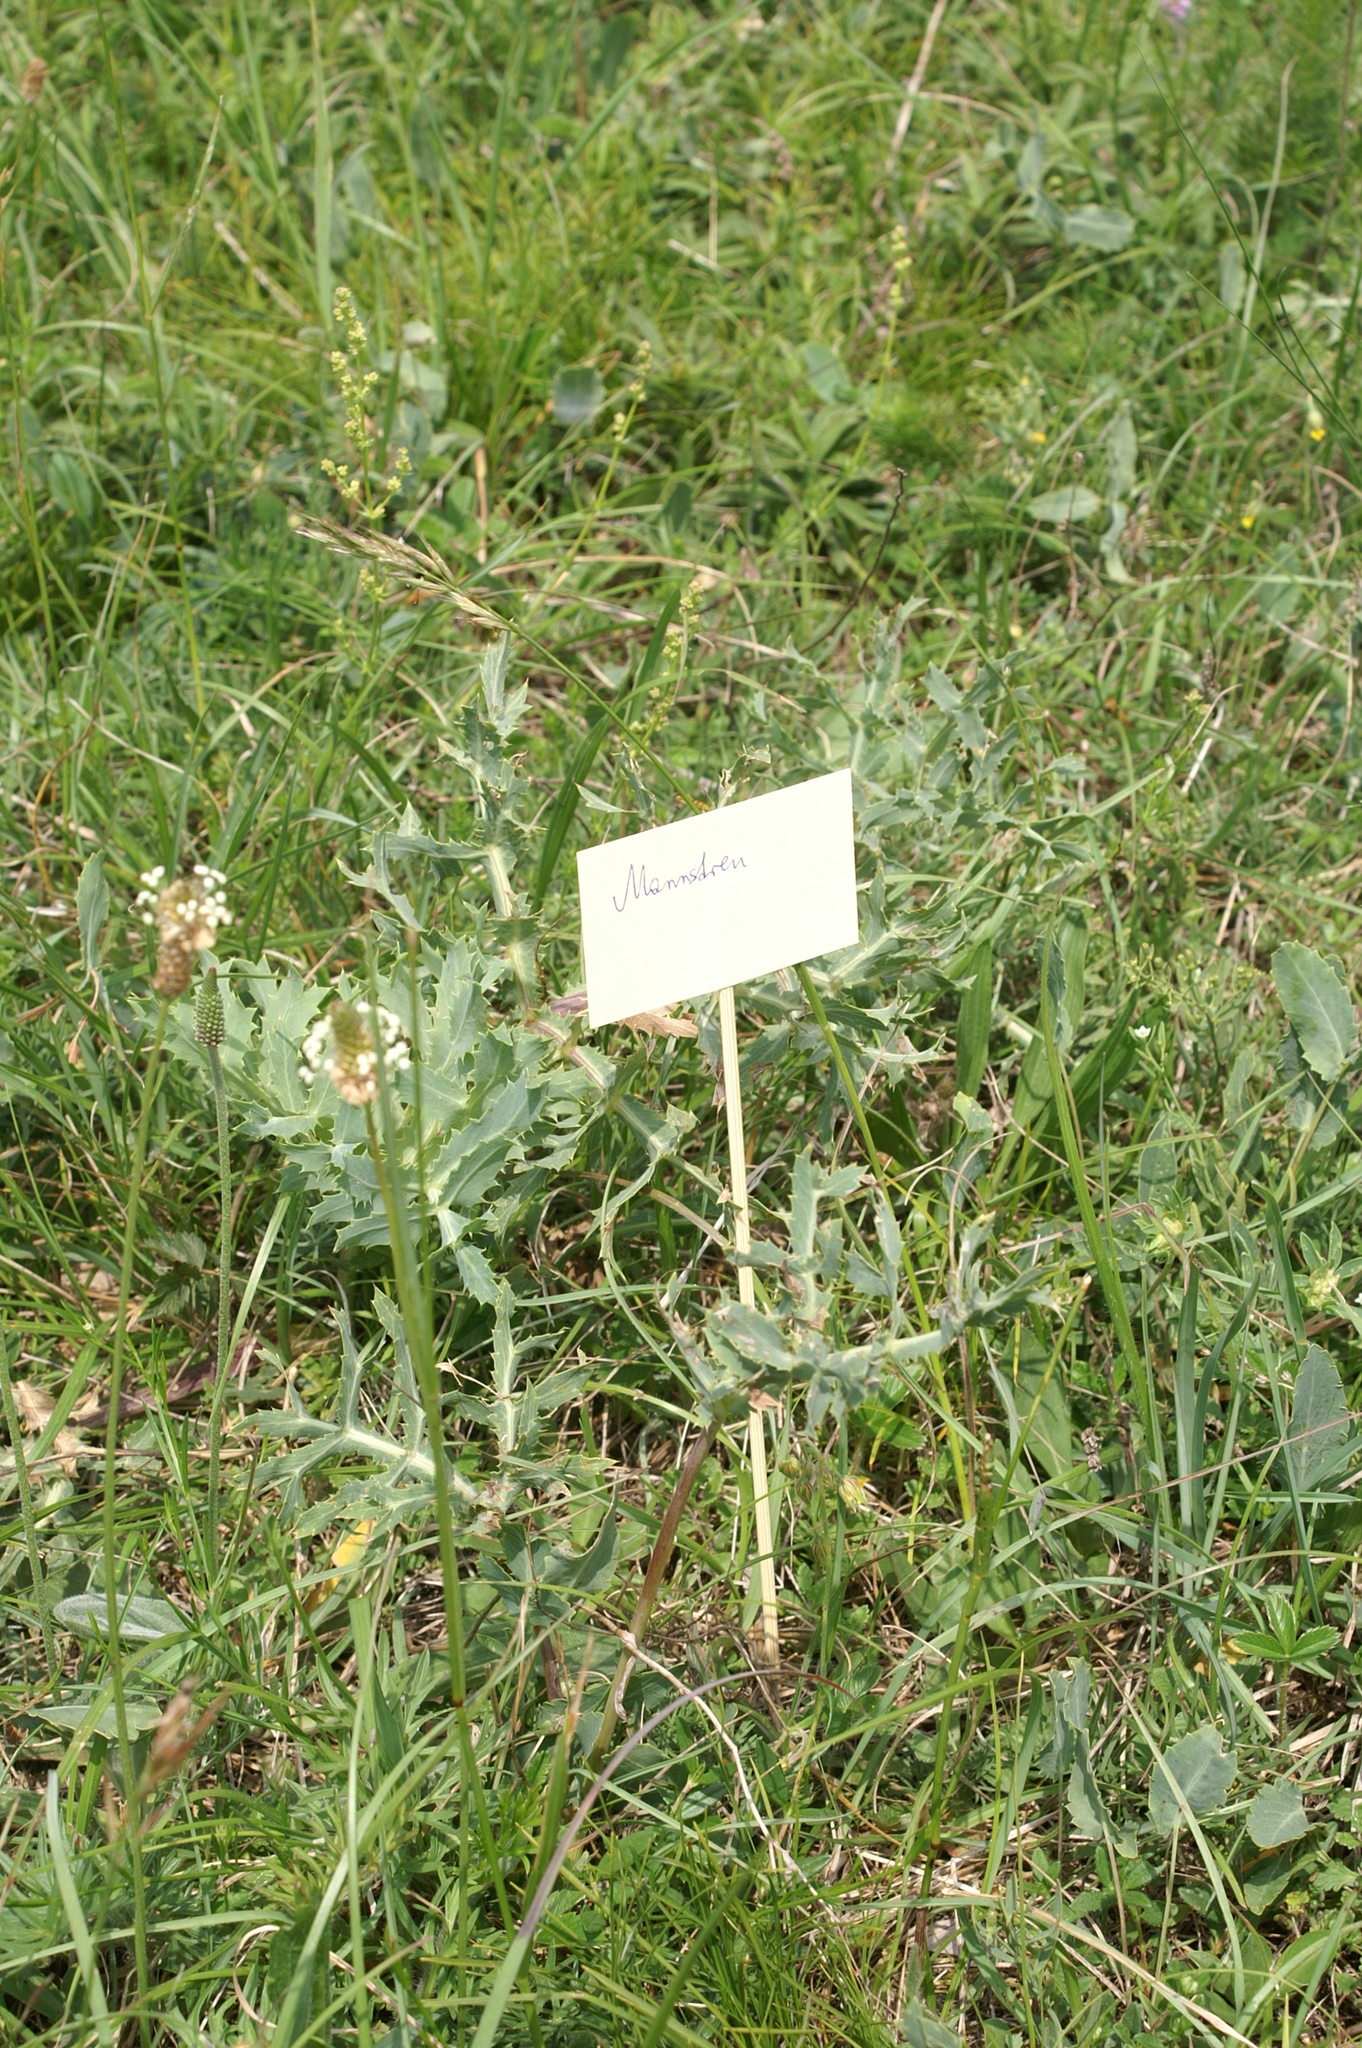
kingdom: Plantae
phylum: Tracheophyta
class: Magnoliopsida
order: Apiales
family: Apiaceae
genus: Eryngium
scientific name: Eryngium campestre
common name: Field eryngo
